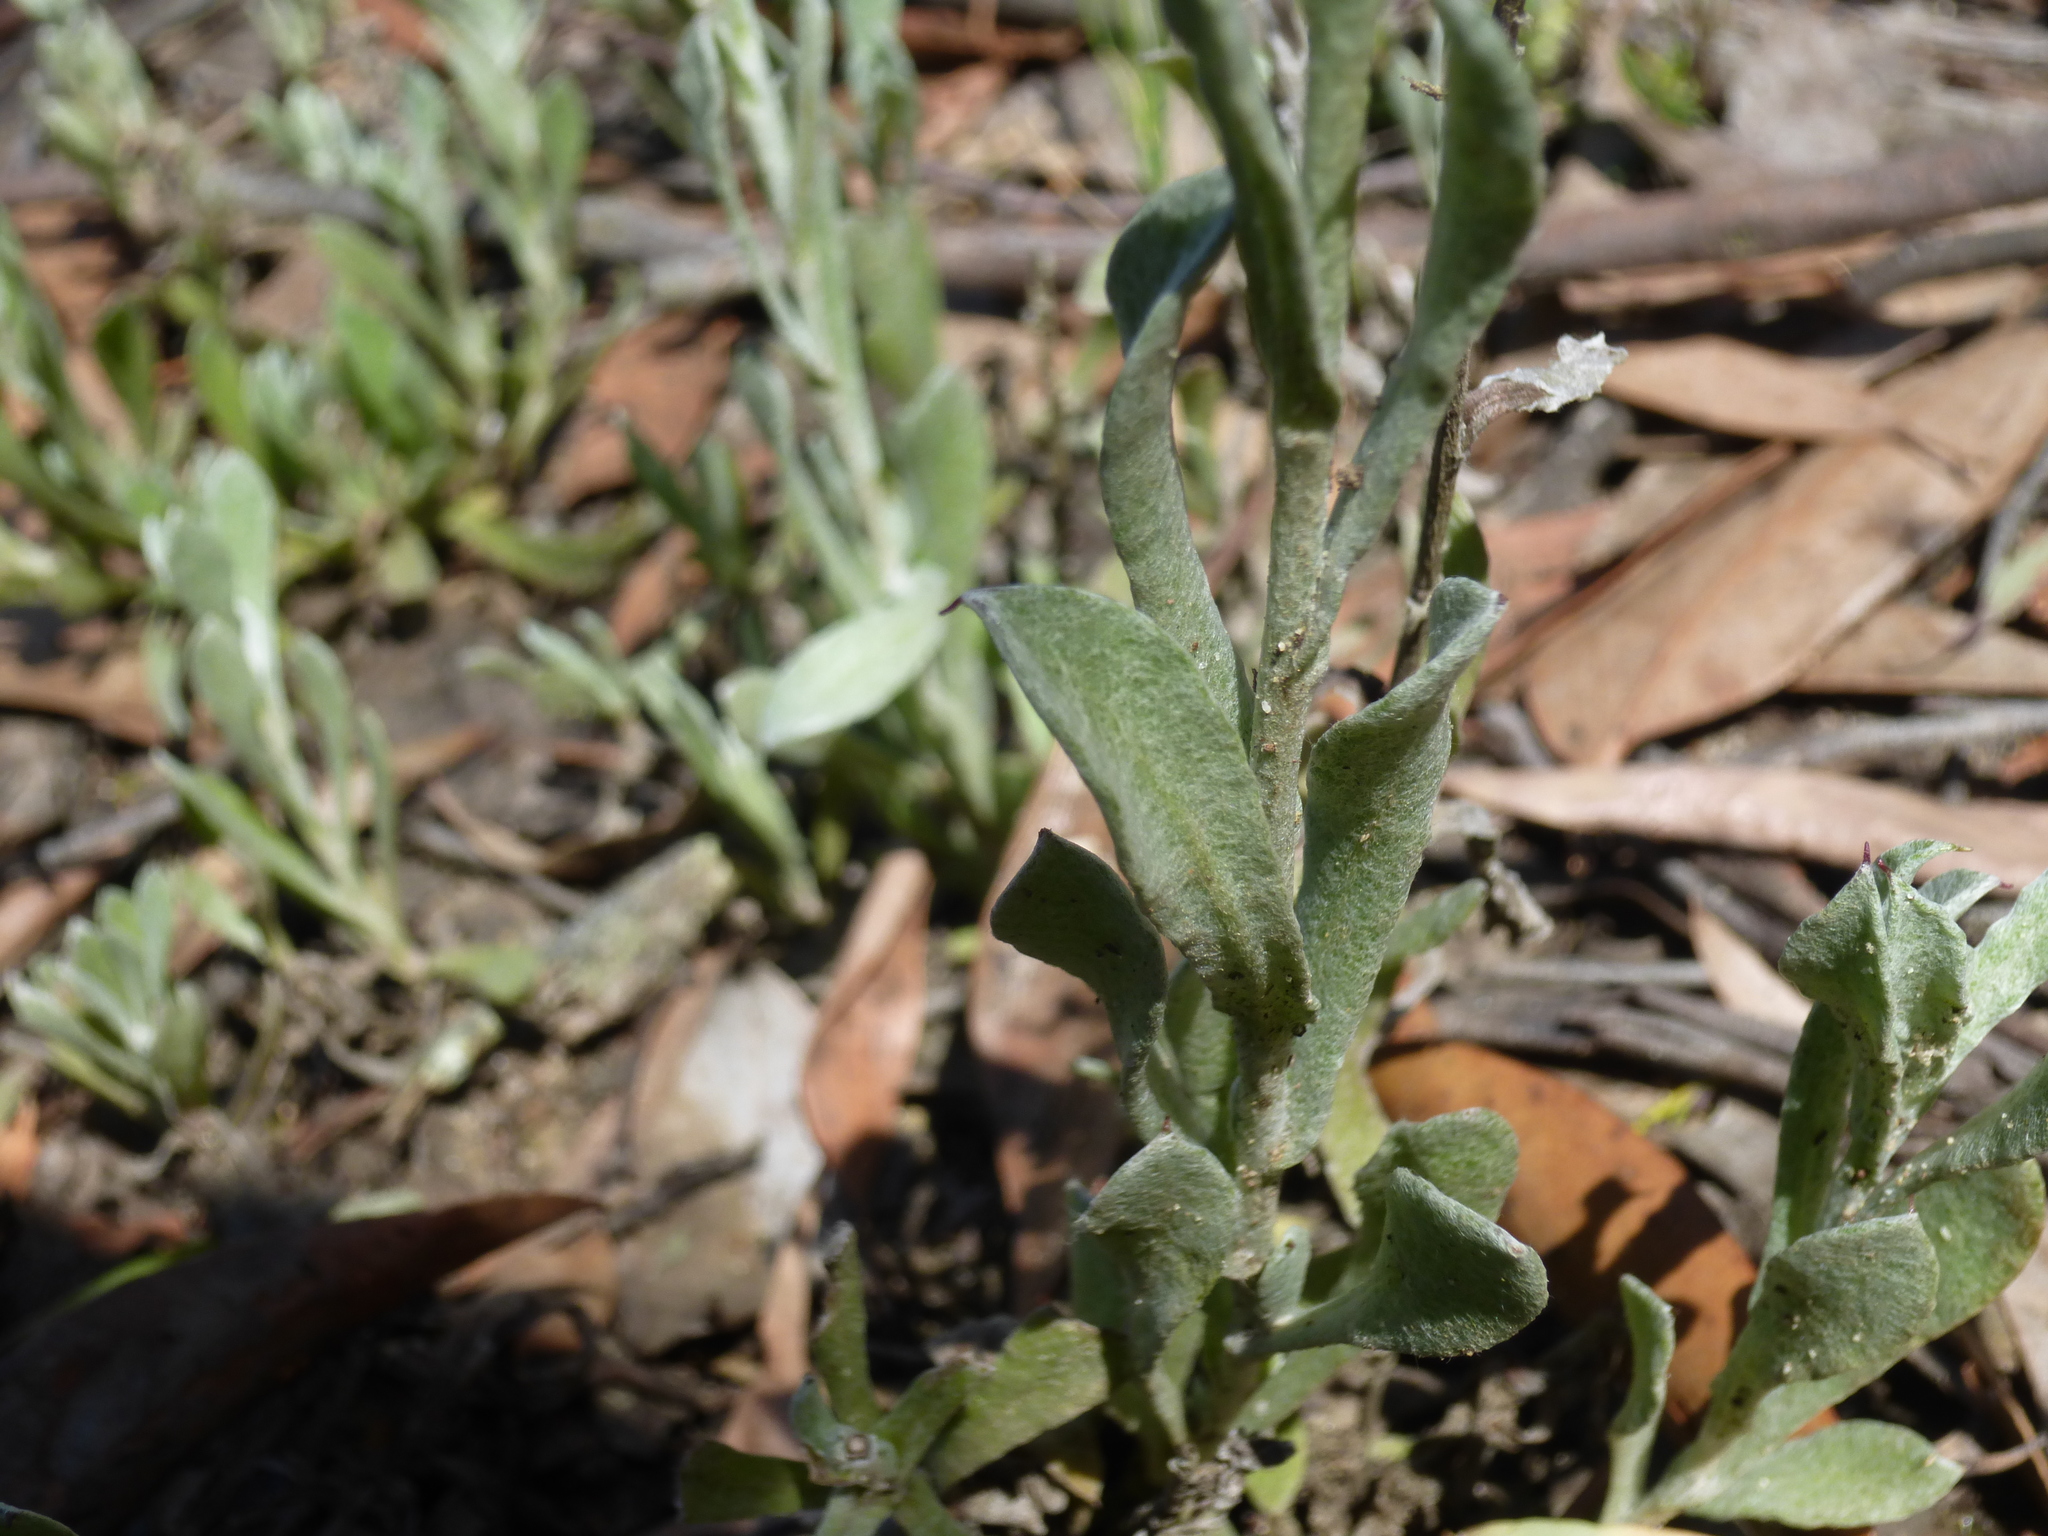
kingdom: Plantae
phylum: Tracheophyta
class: Magnoliopsida
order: Asterales
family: Asteraceae
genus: Chrysocephalum
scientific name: Chrysocephalum apiculatum
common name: Common everlasting
